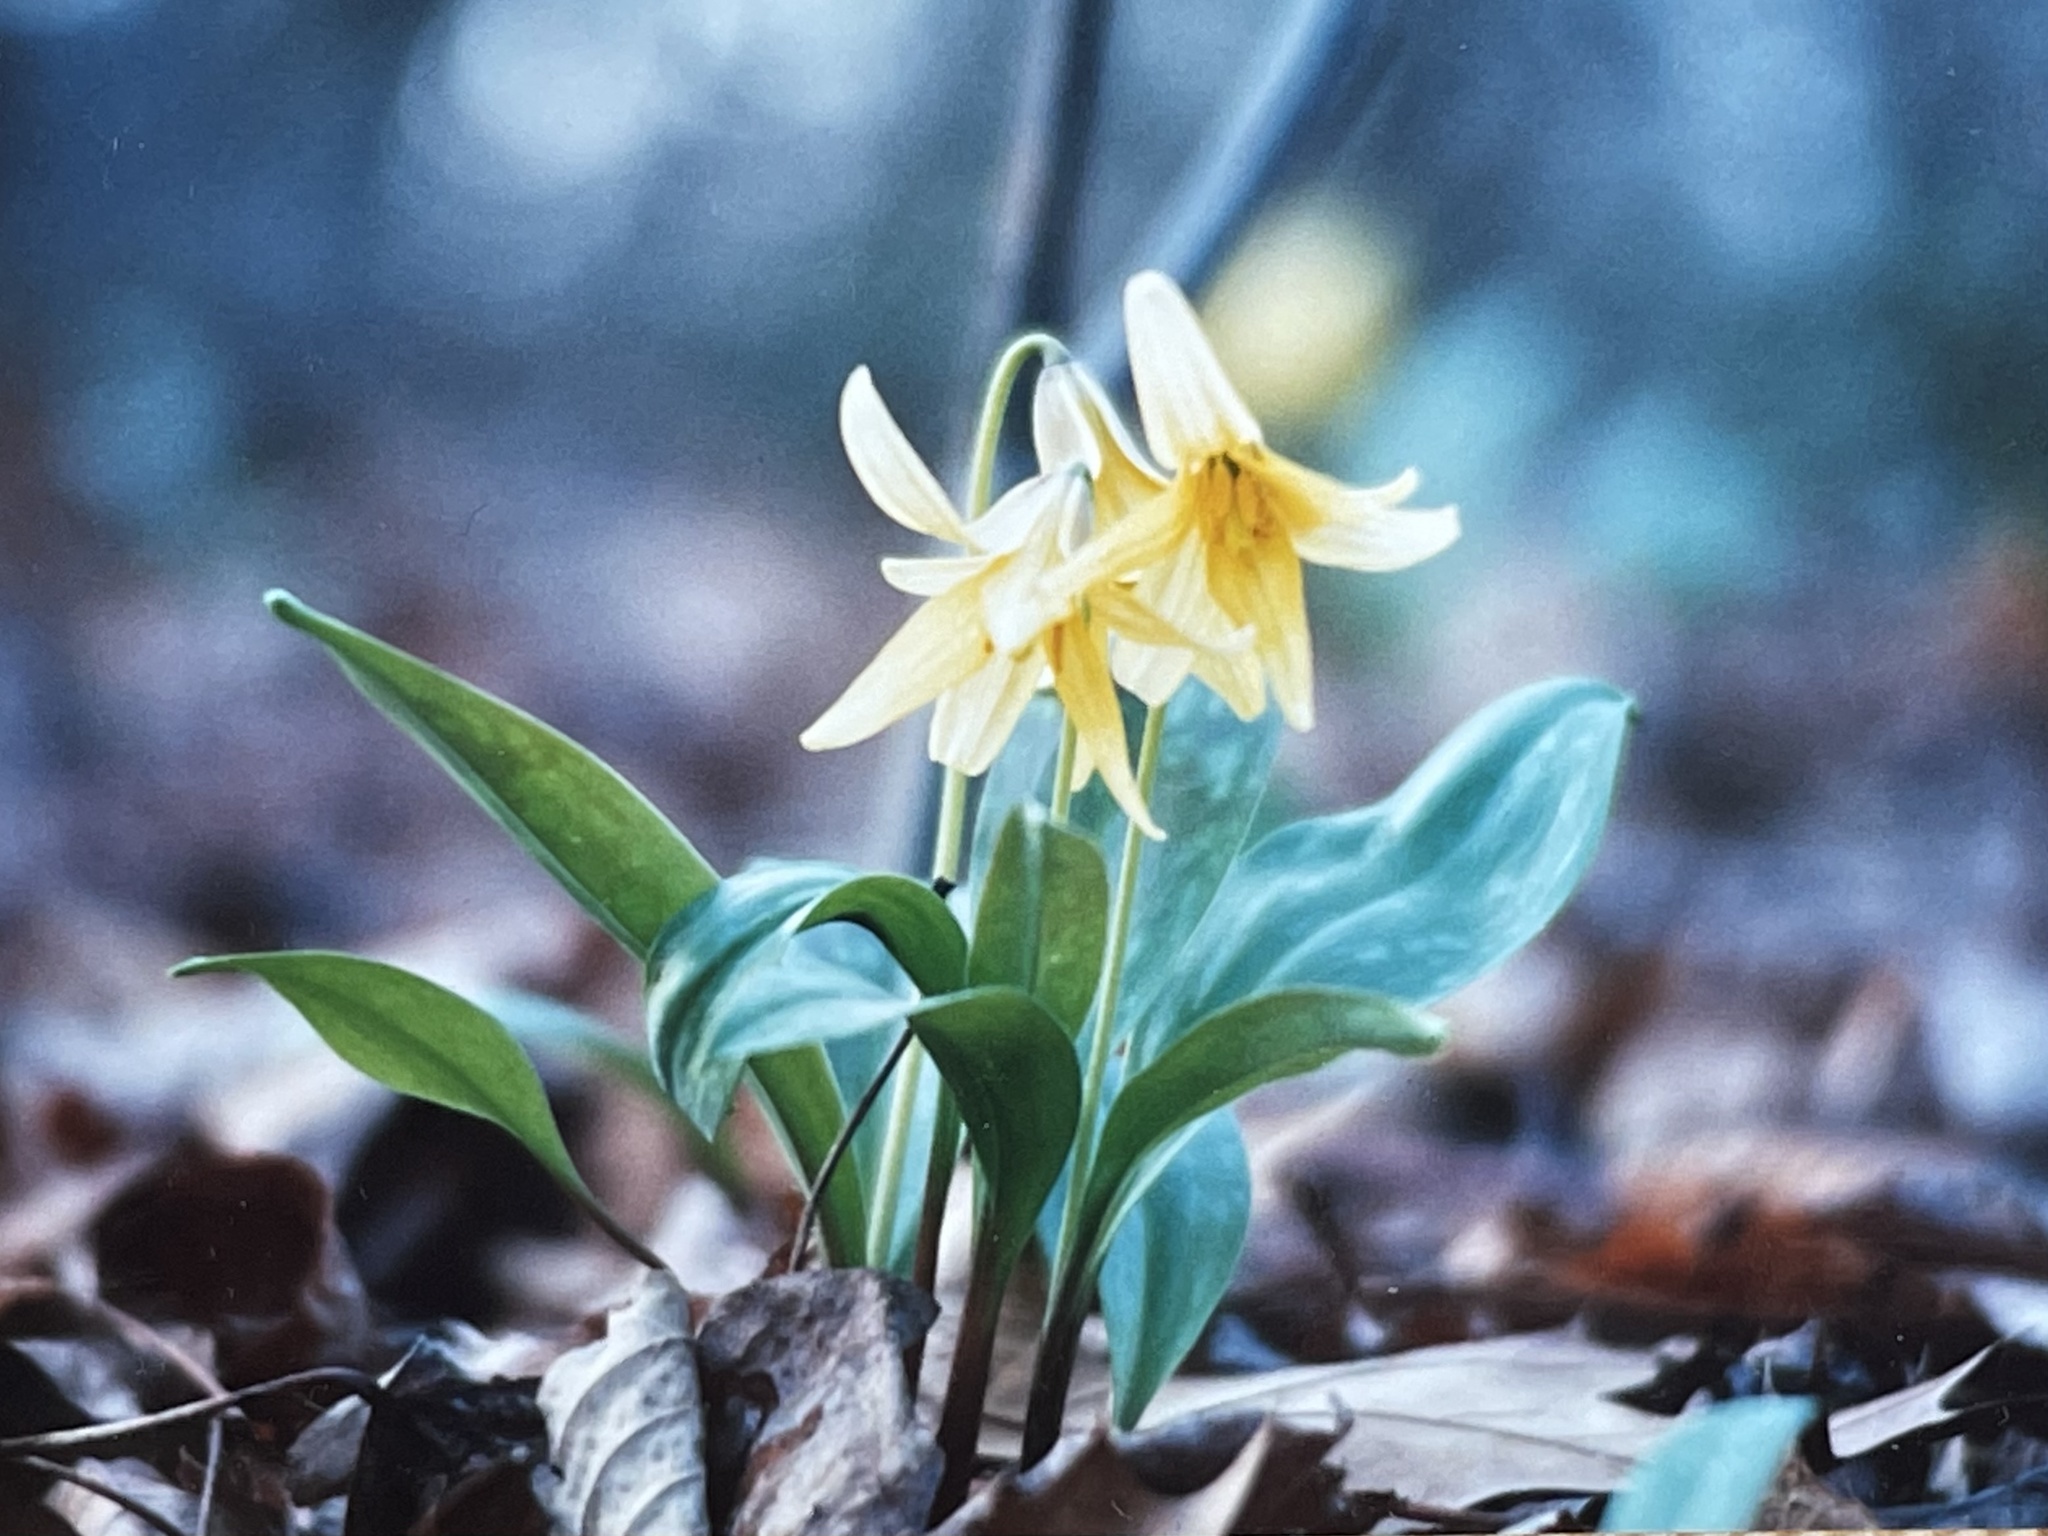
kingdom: Plantae
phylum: Tracheophyta
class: Liliopsida
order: Liliales
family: Liliaceae
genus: Erythronium
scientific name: Erythronium americanum
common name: Yellow adder's-tongue
